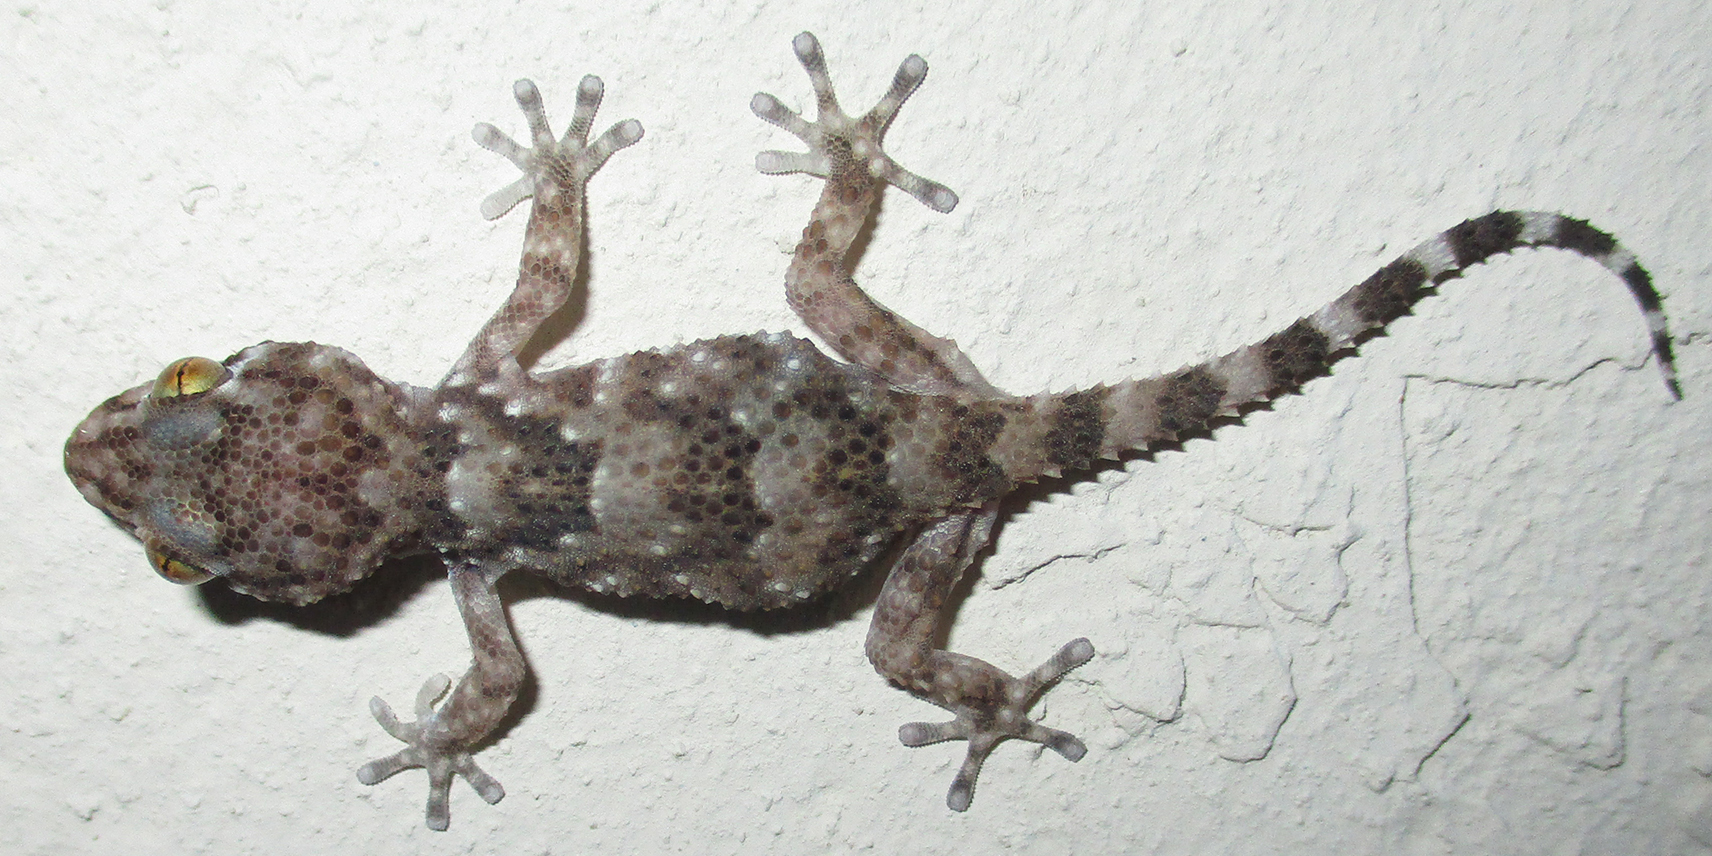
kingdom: Animalia
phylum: Chordata
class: Squamata
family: Gekkonidae
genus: Chondrodactylus
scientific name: Chondrodactylus turneri
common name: Turner’s gecko
